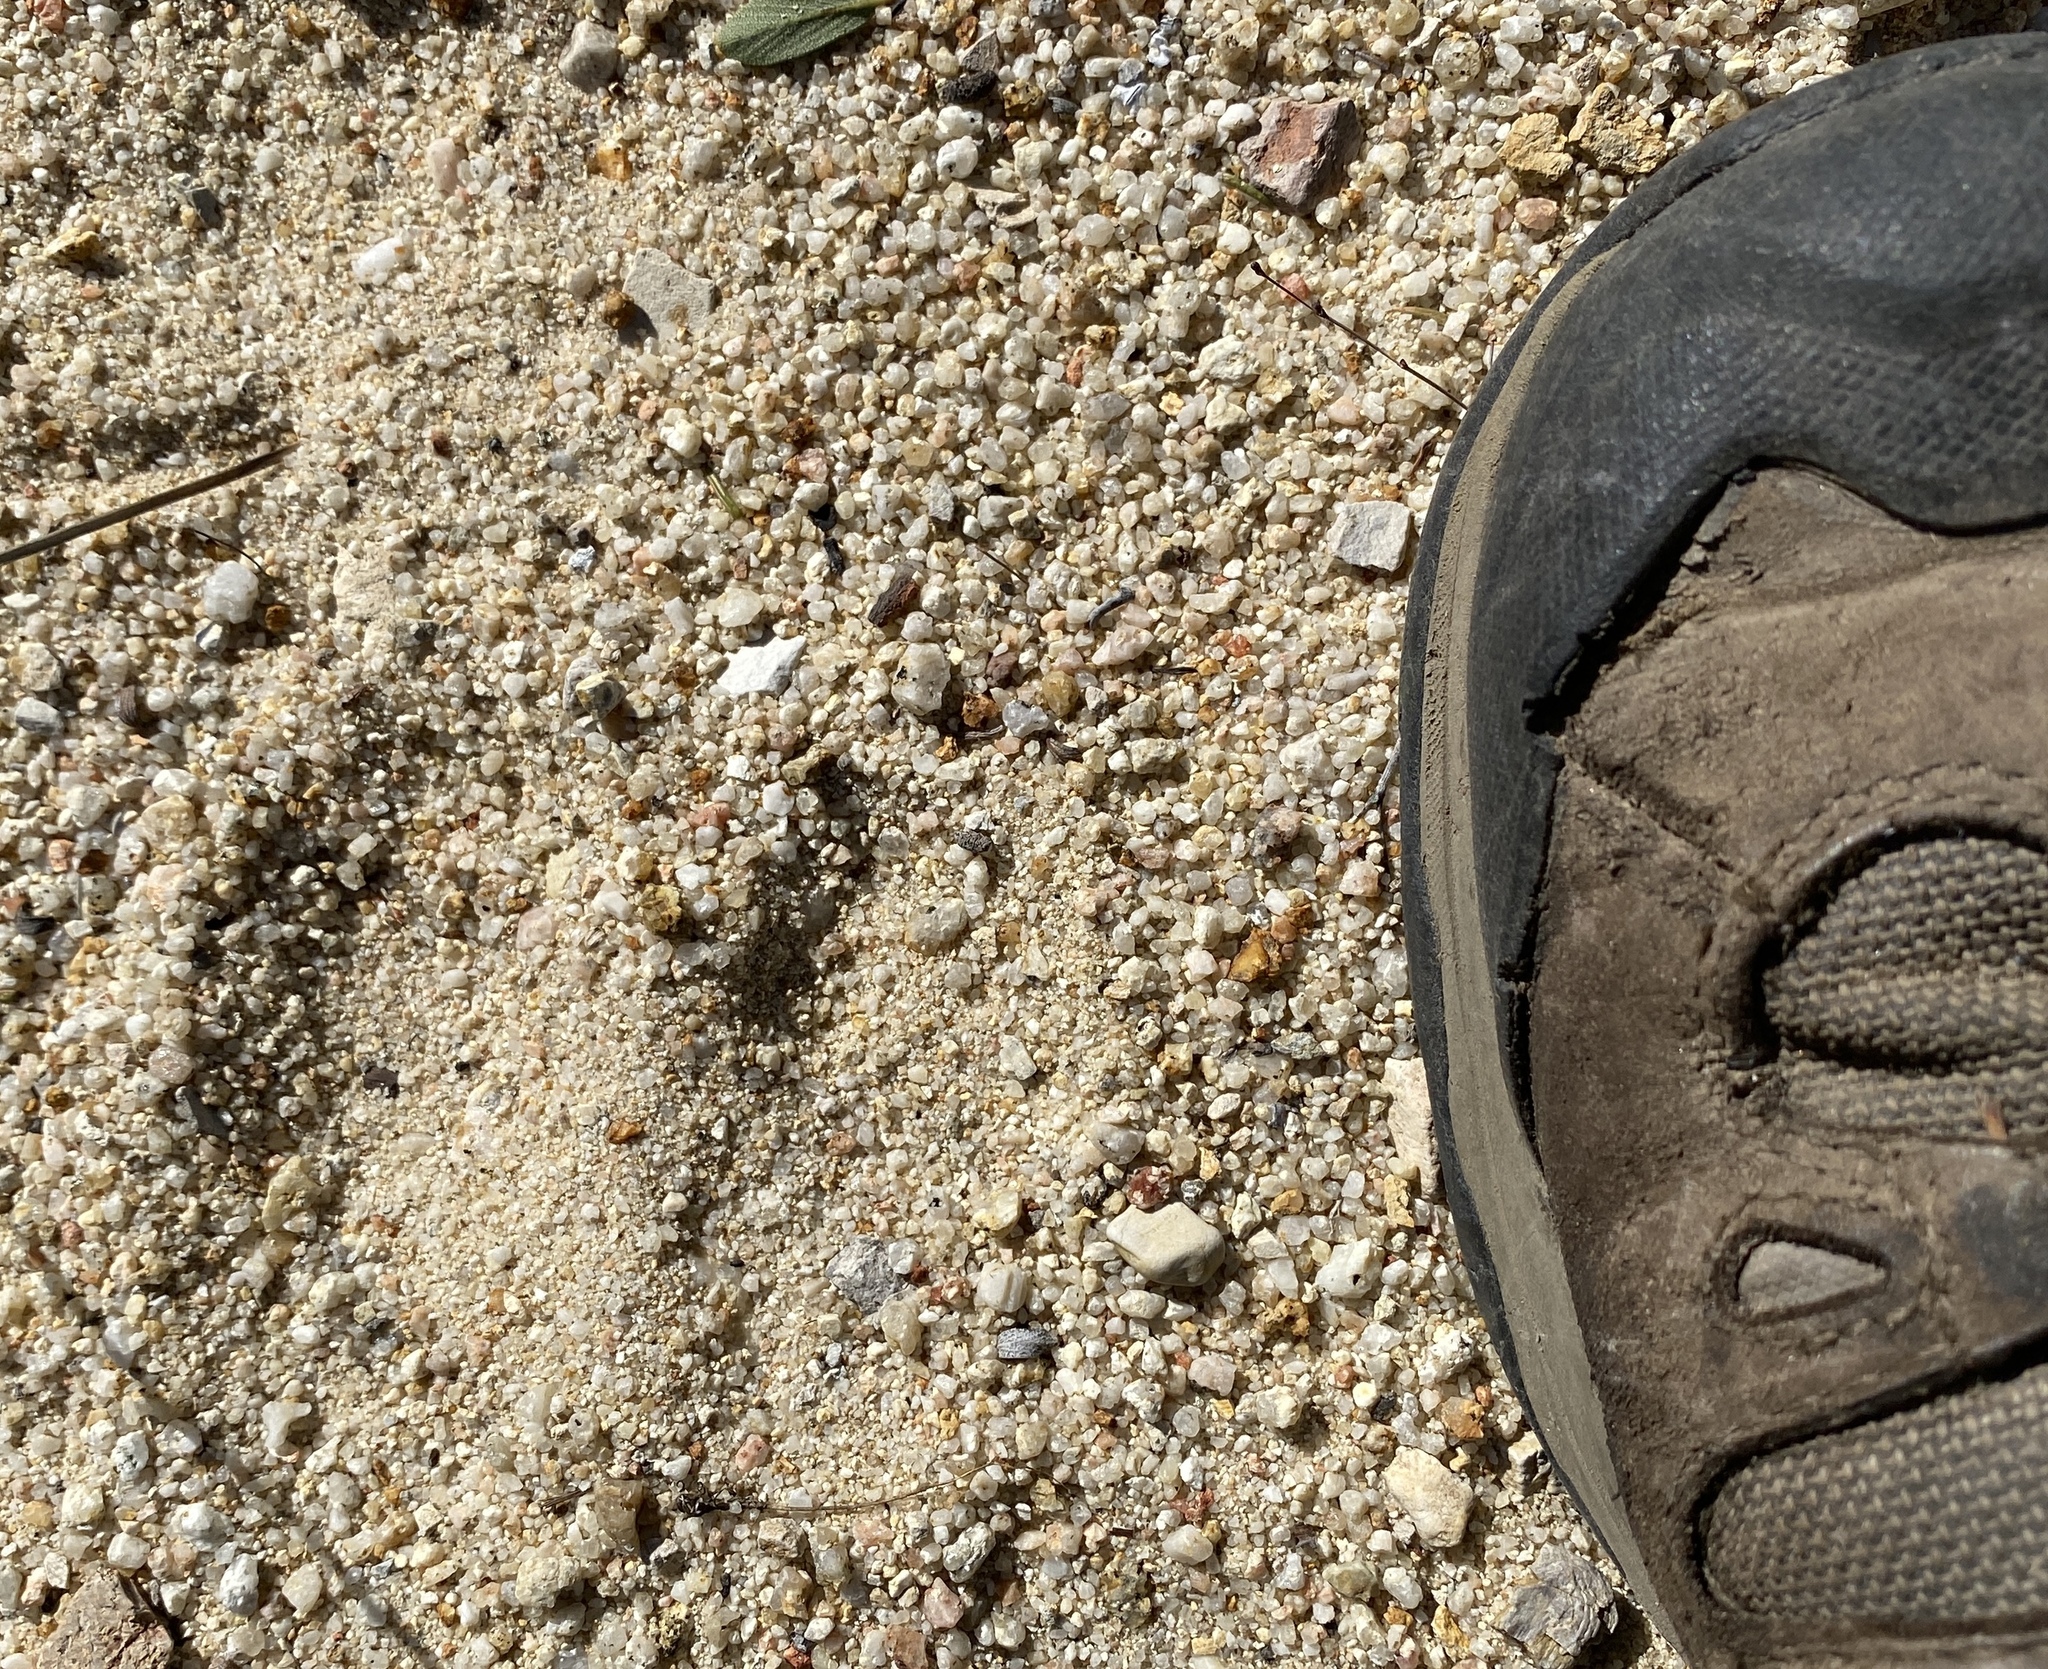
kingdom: Animalia
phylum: Chordata
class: Mammalia
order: Artiodactyla
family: Suidae
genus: Sus
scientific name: Sus scrofa
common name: Wild boar
